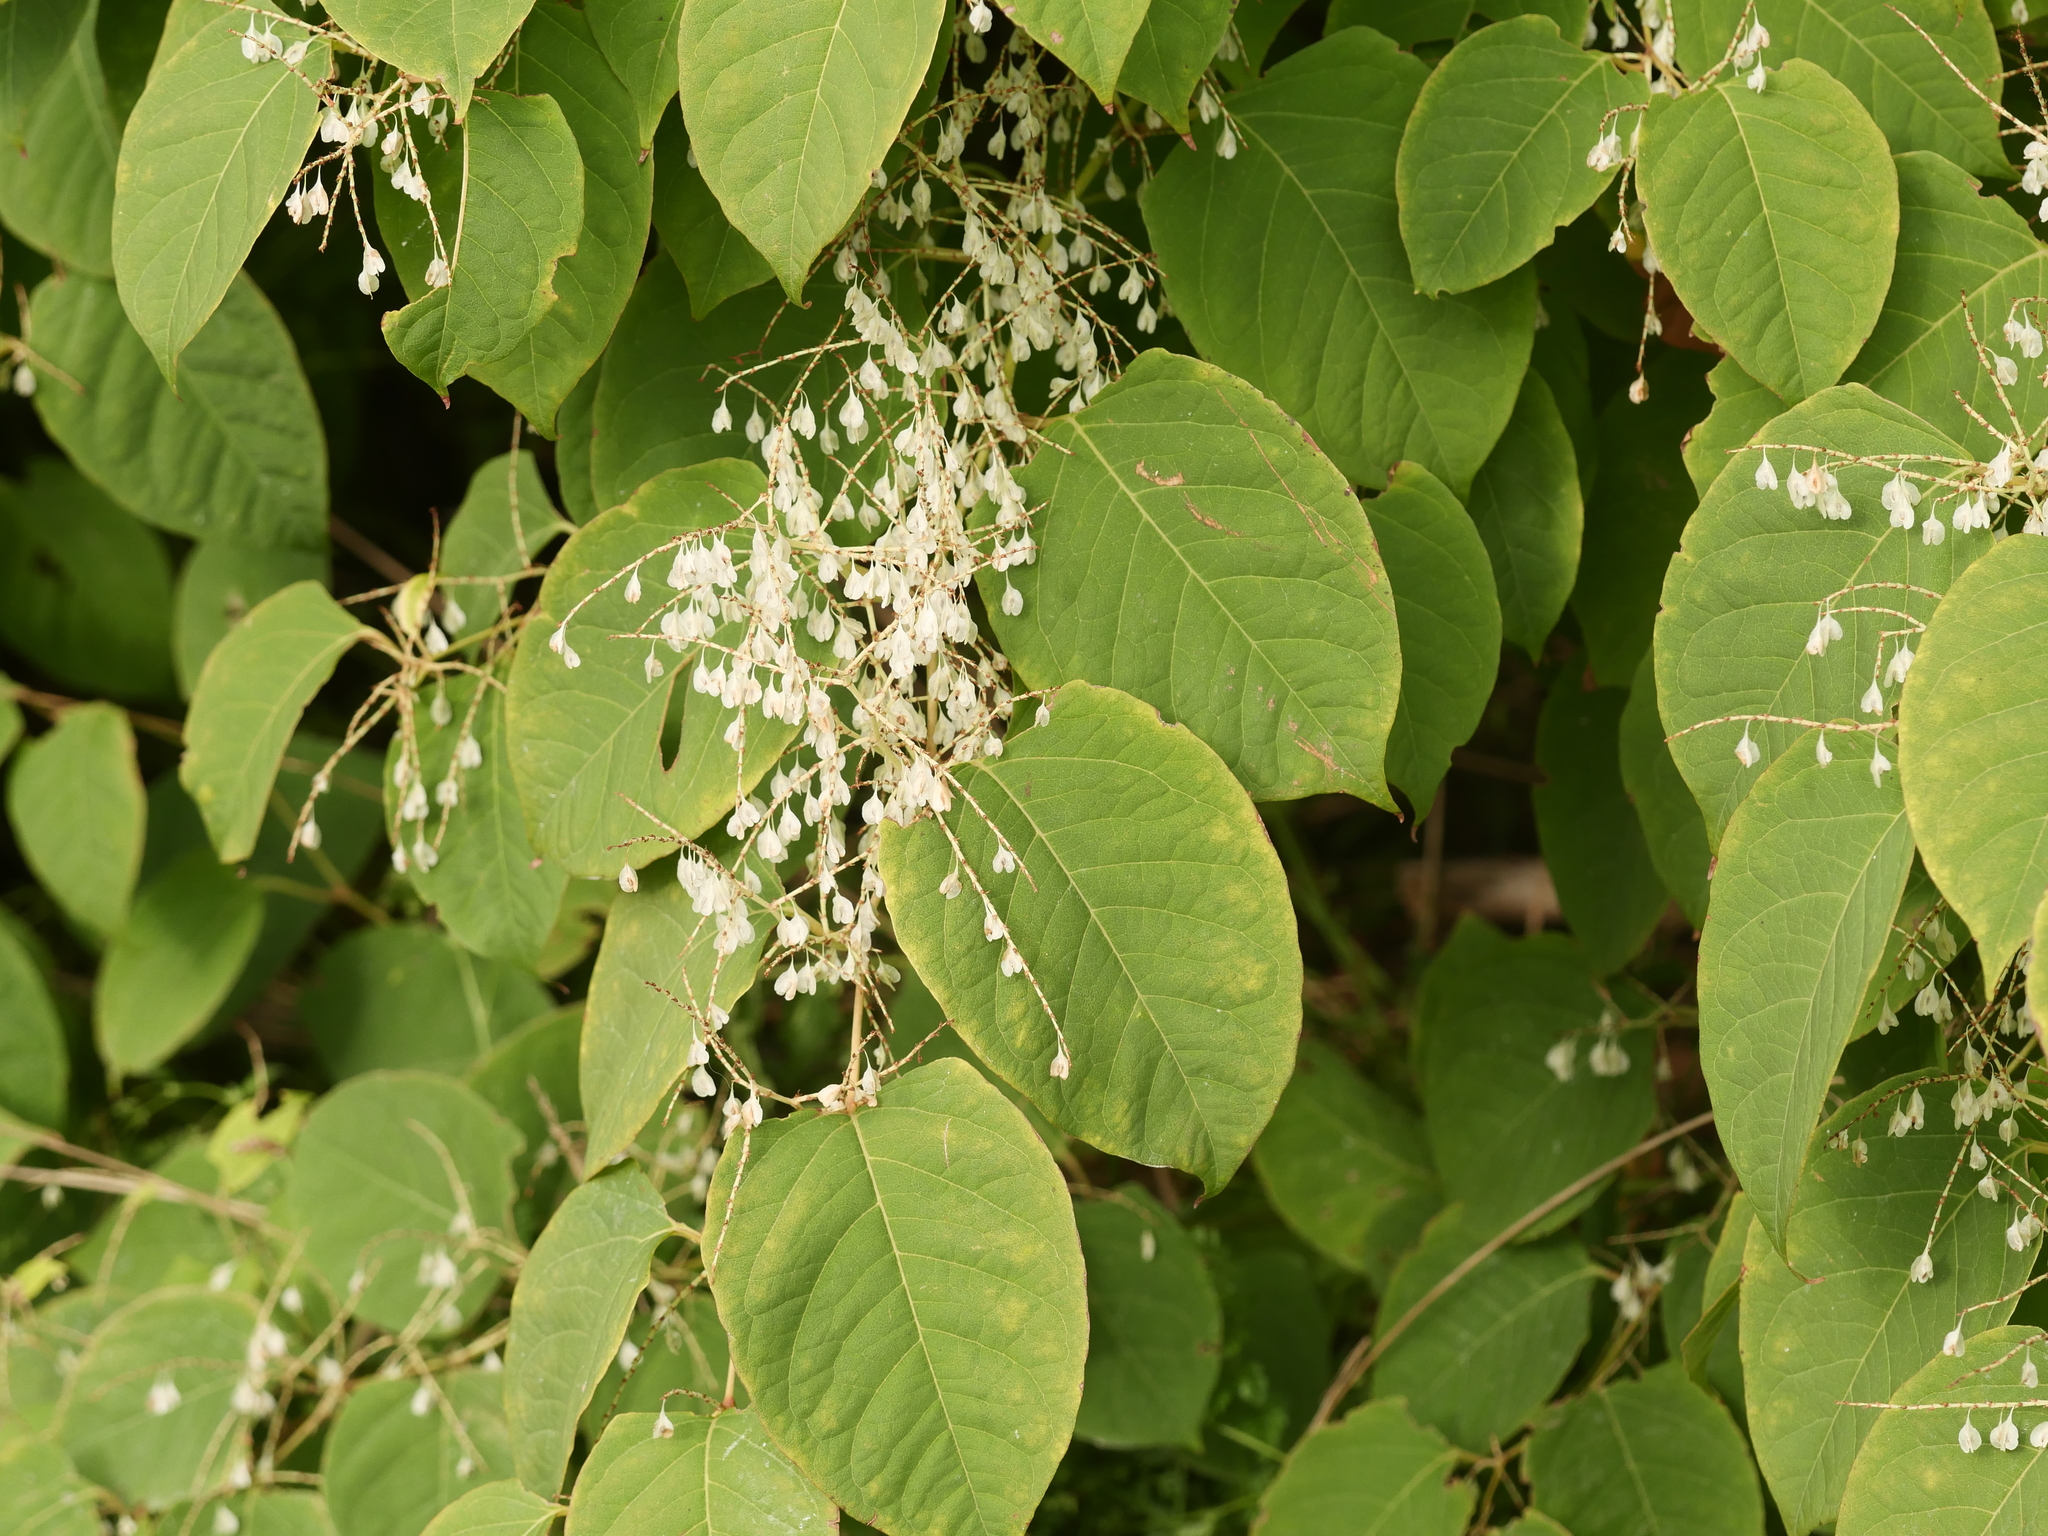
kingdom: Plantae
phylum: Tracheophyta
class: Magnoliopsida
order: Caryophyllales
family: Polygonaceae
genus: Reynoutria
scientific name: Reynoutria japonica
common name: Japanese knotweed
